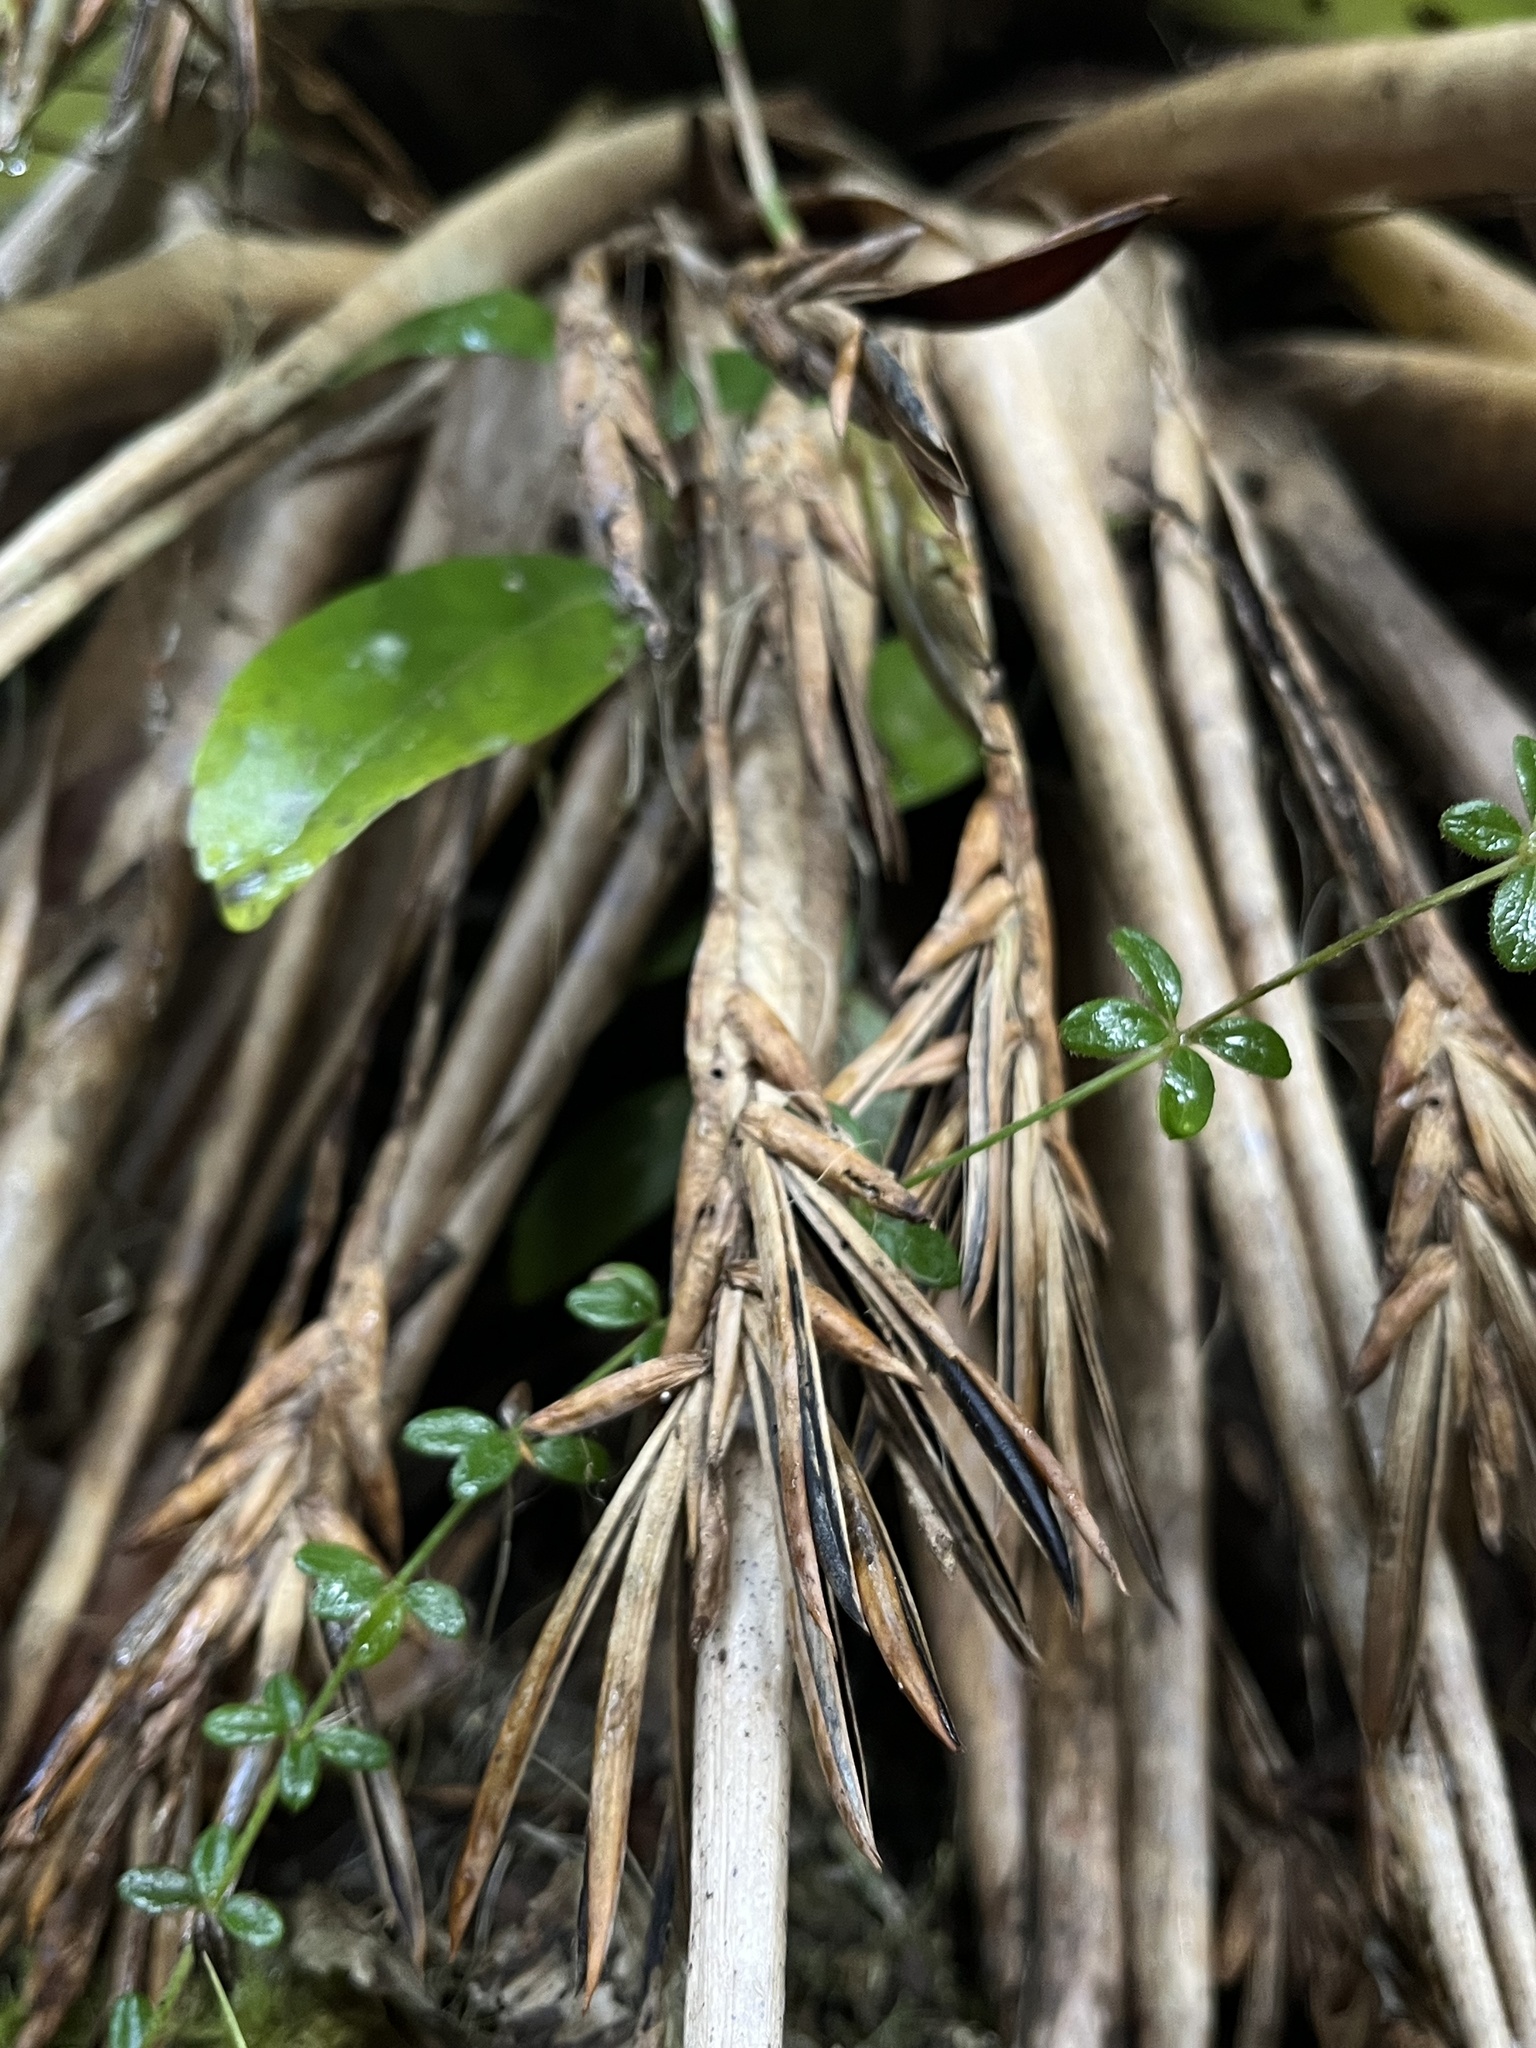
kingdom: Plantae
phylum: Tracheophyta
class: Liliopsida
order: Poales
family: Bromeliaceae
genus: Tillandsia
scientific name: Tillandsia complanata
